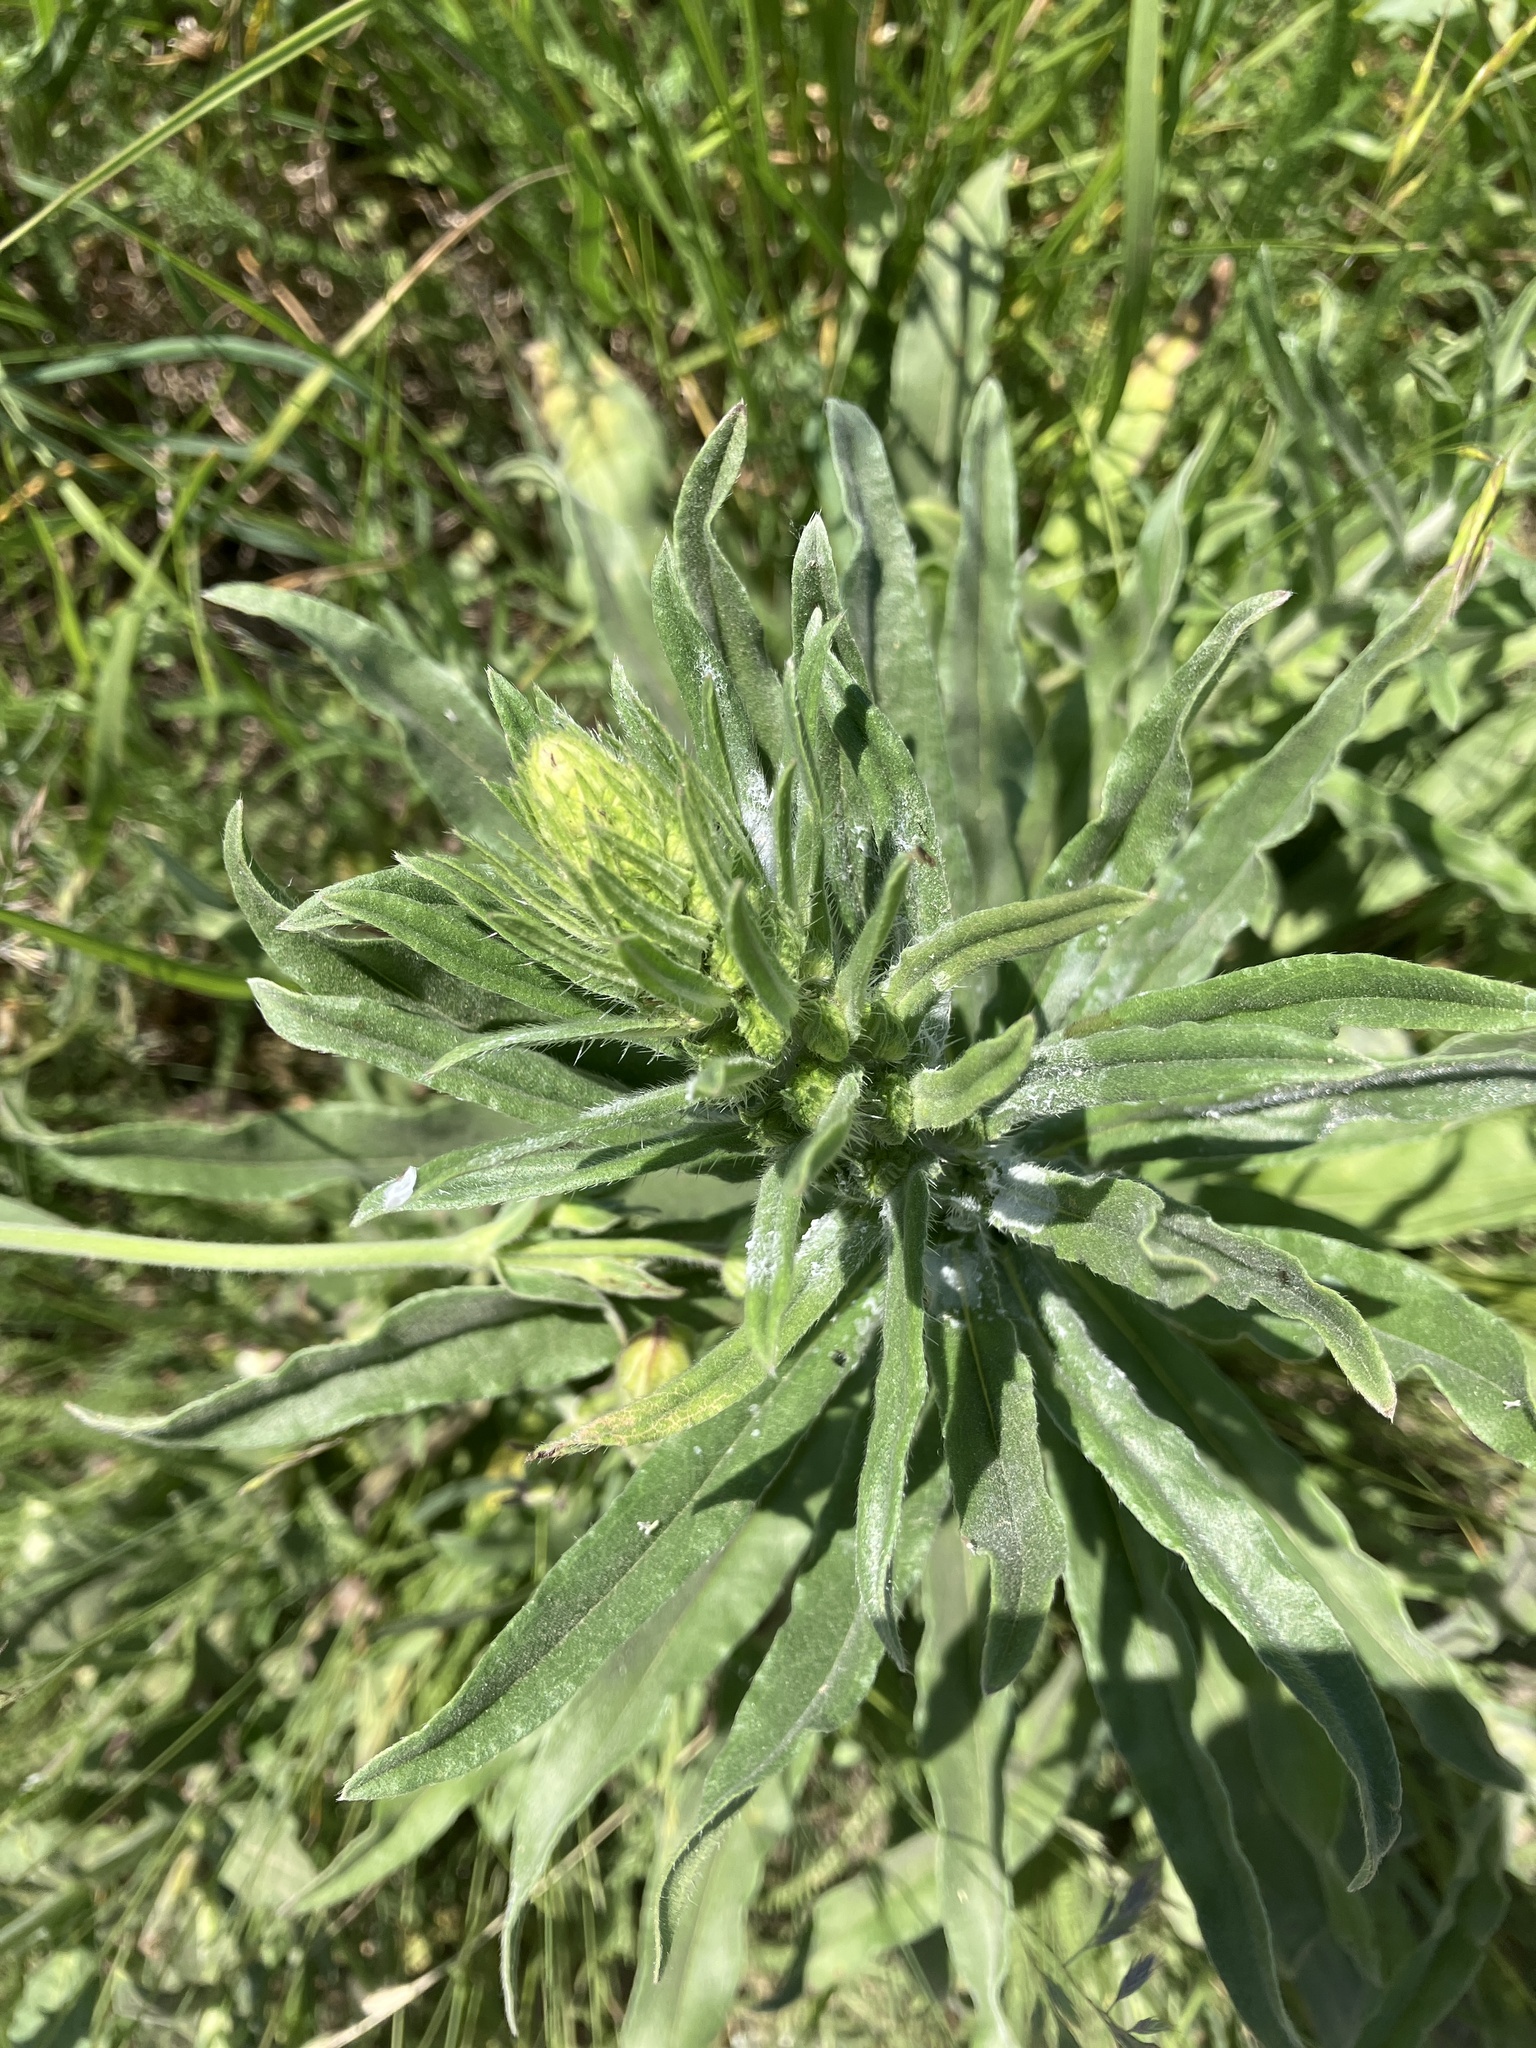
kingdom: Plantae
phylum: Tracheophyta
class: Magnoliopsida
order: Boraginales
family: Boraginaceae
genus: Echium
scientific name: Echium vulgare
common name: Common viper's bugloss
